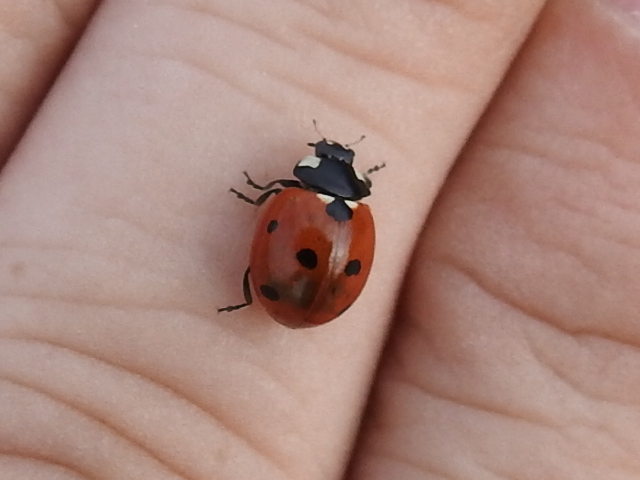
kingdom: Animalia
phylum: Arthropoda
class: Insecta
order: Coleoptera
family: Coccinellidae
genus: Coccinella
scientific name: Coccinella septempunctata
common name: Sevenspotted lady beetle
